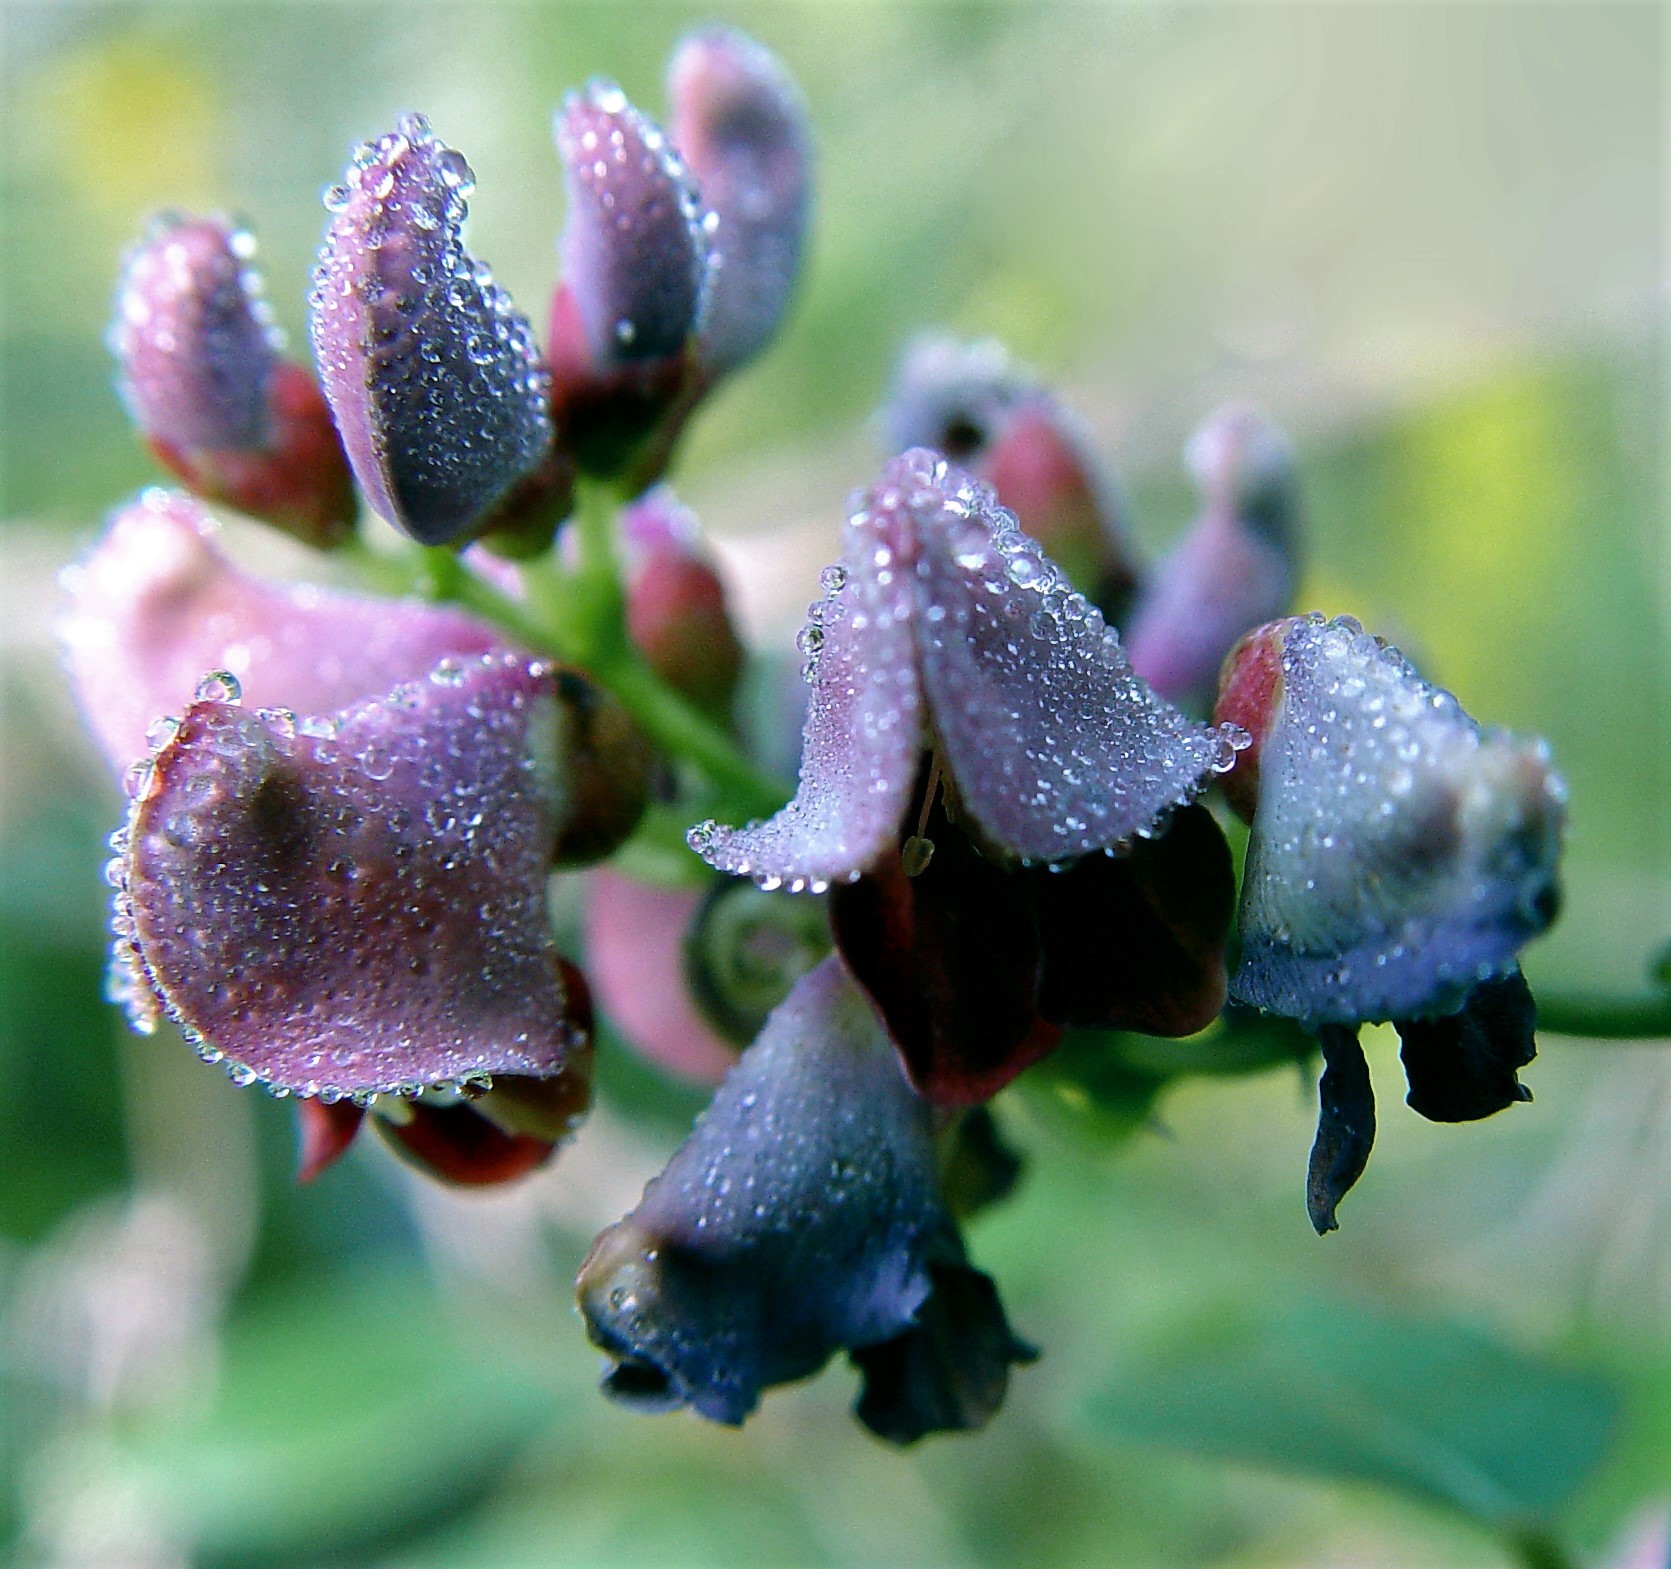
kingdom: Plantae
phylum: Tracheophyta
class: Magnoliopsida
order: Fabales
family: Fabaceae
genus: Apios
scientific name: Apios americana
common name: American potato-bean
